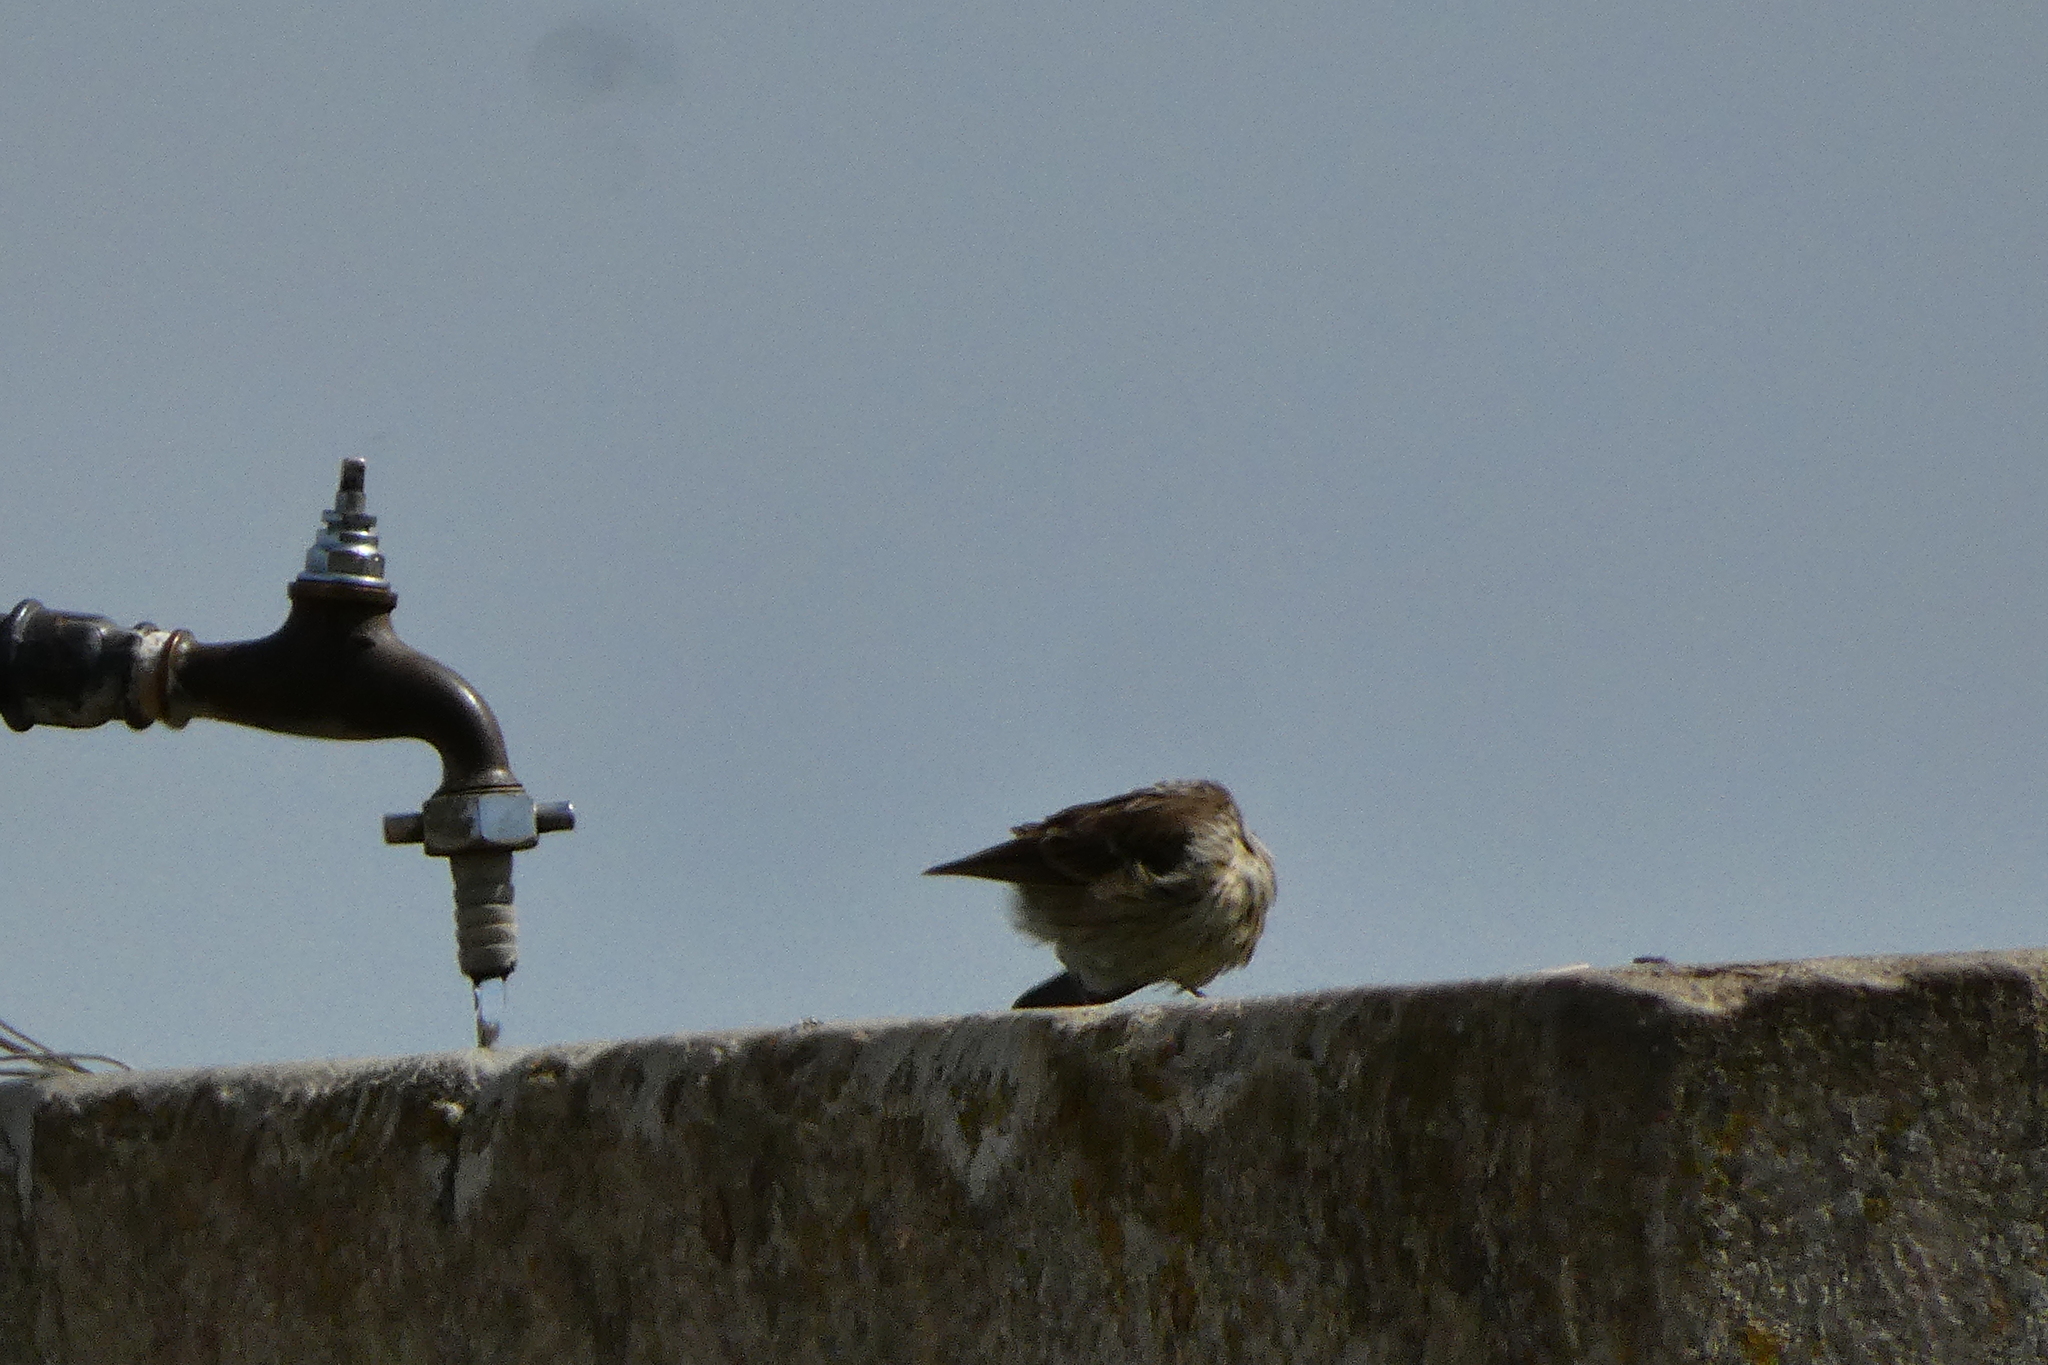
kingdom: Animalia
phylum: Chordata
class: Aves
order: Passeriformes
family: Motacillidae
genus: Anthus
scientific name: Anthus spinoletta
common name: Water pipit
